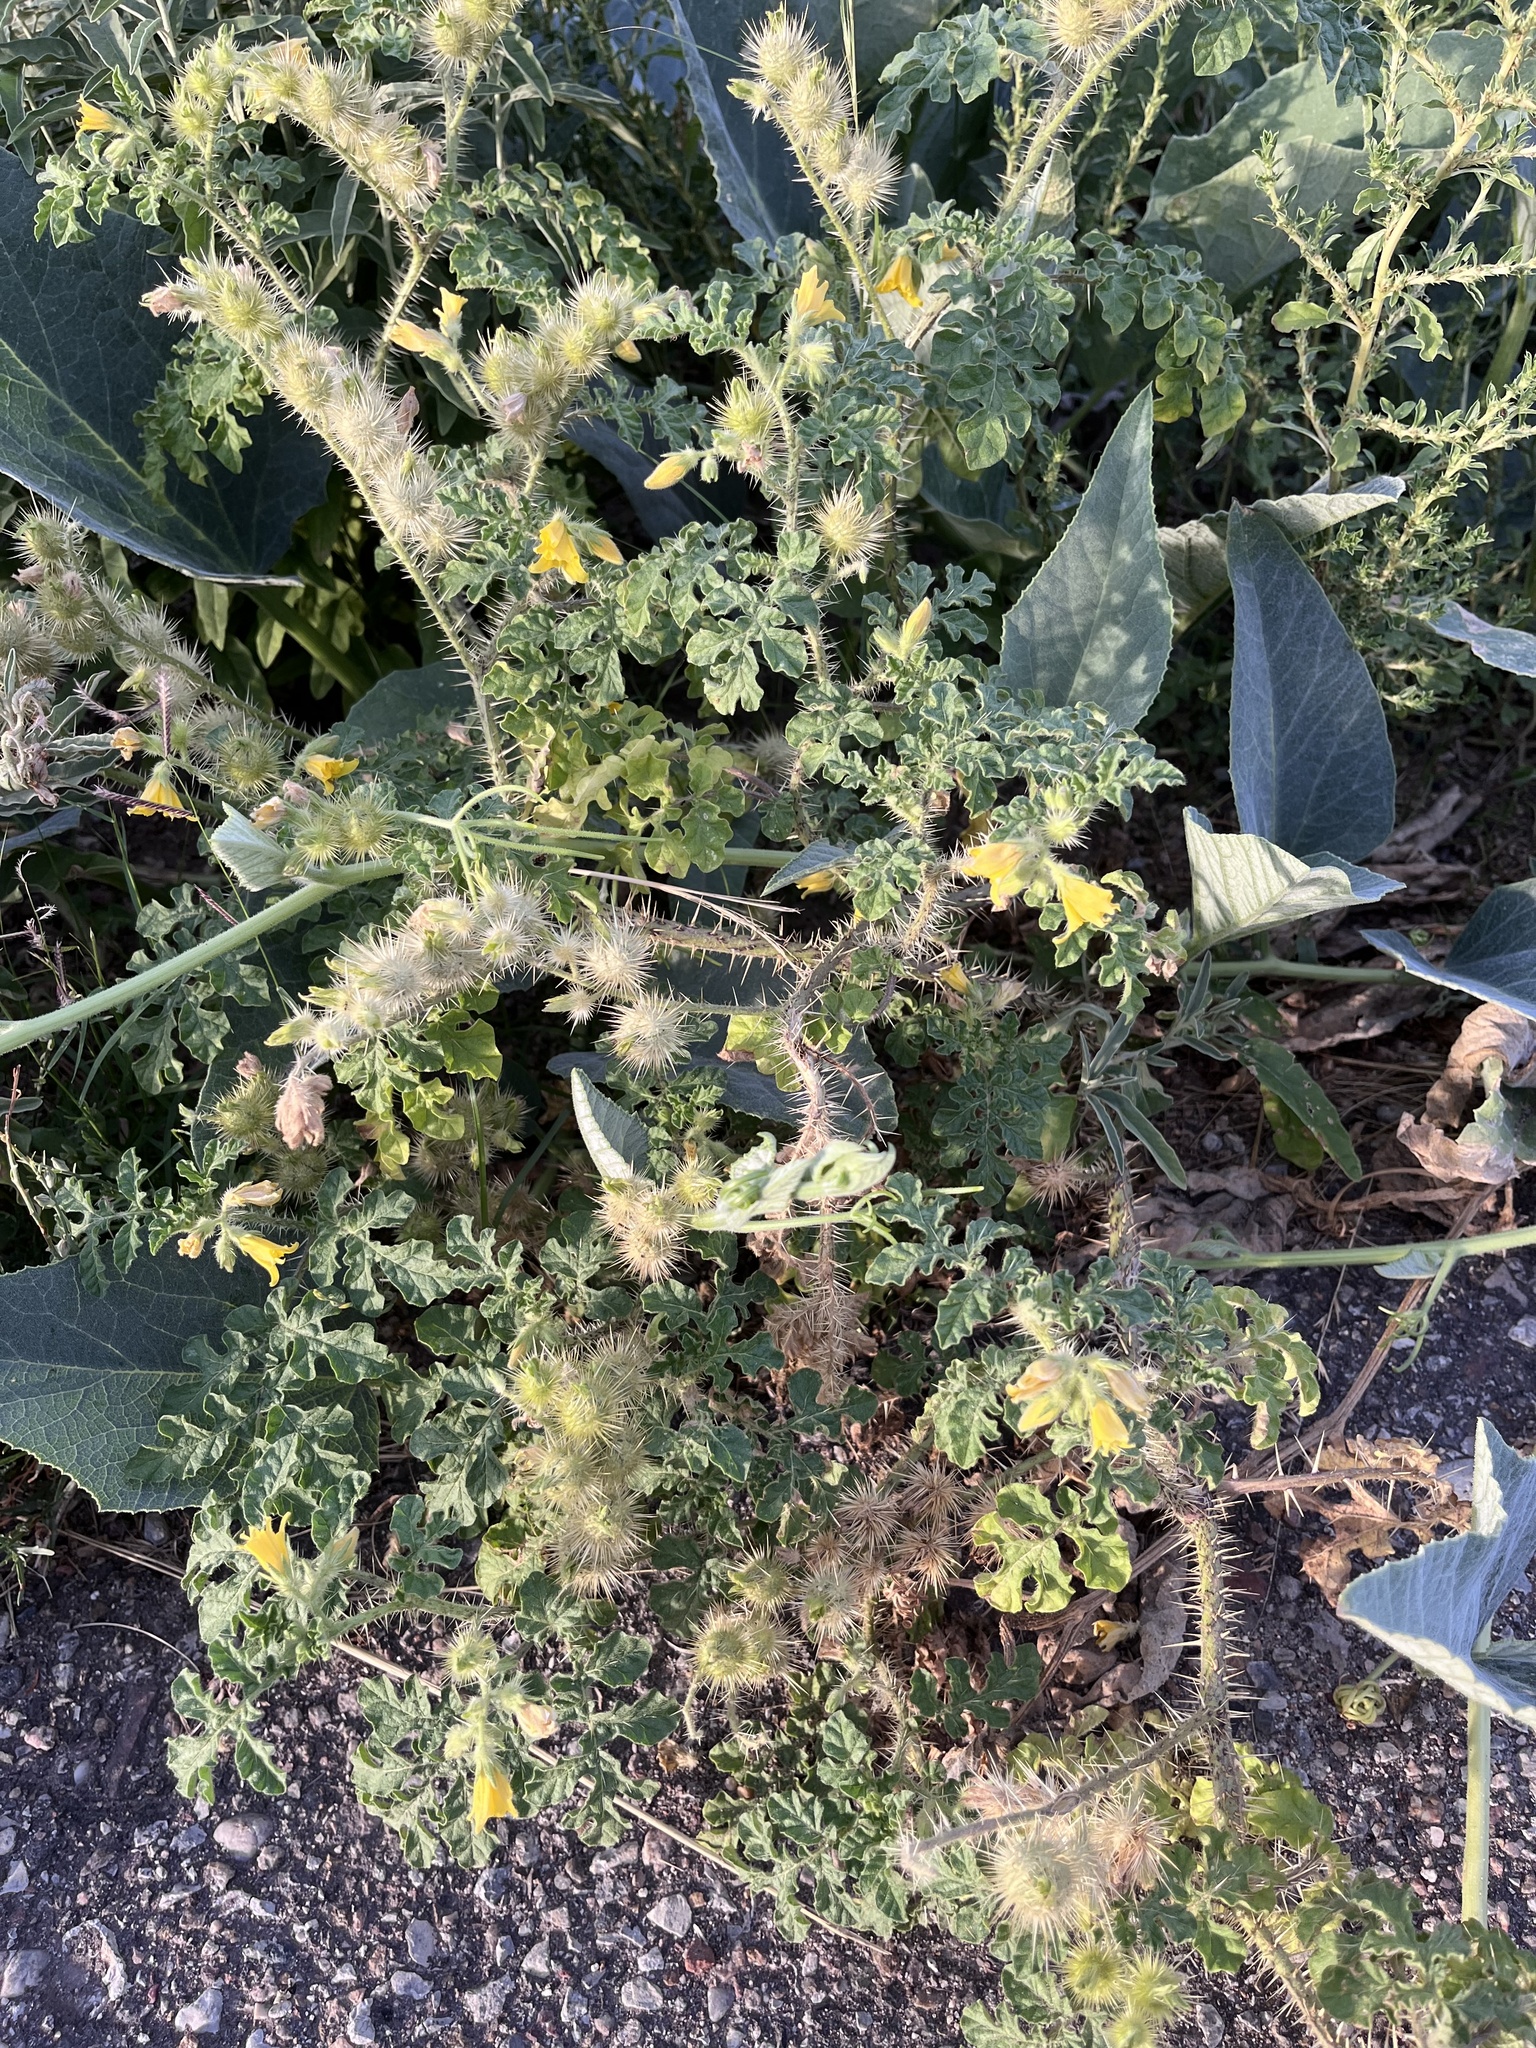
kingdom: Plantae
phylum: Tracheophyta
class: Magnoliopsida
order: Solanales
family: Solanaceae
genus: Solanum
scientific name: Solanum angustifolium
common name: Buffalobur nightshade
